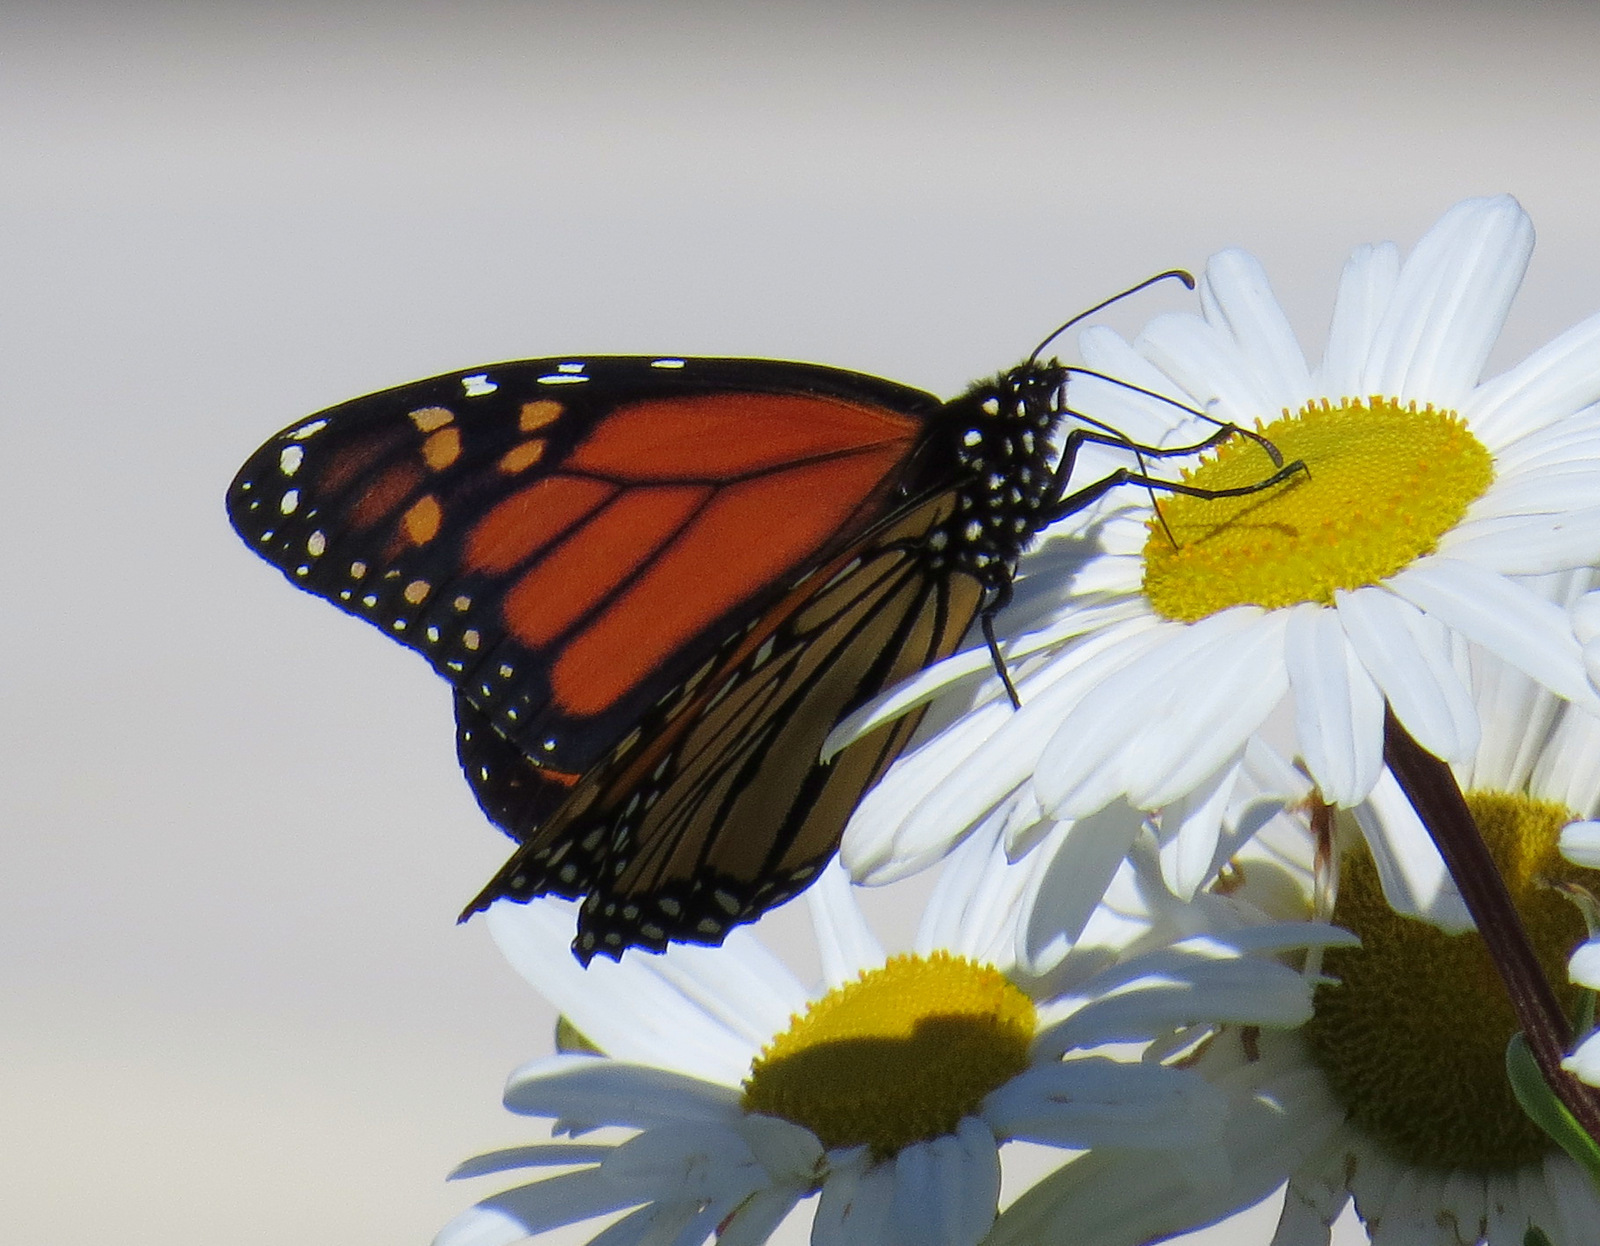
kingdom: Animalia
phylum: Arthropoda
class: Insecta
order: Lepidoptera
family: Nymphalidae
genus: Danaus
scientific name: Danaus plexippus
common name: Monarch
